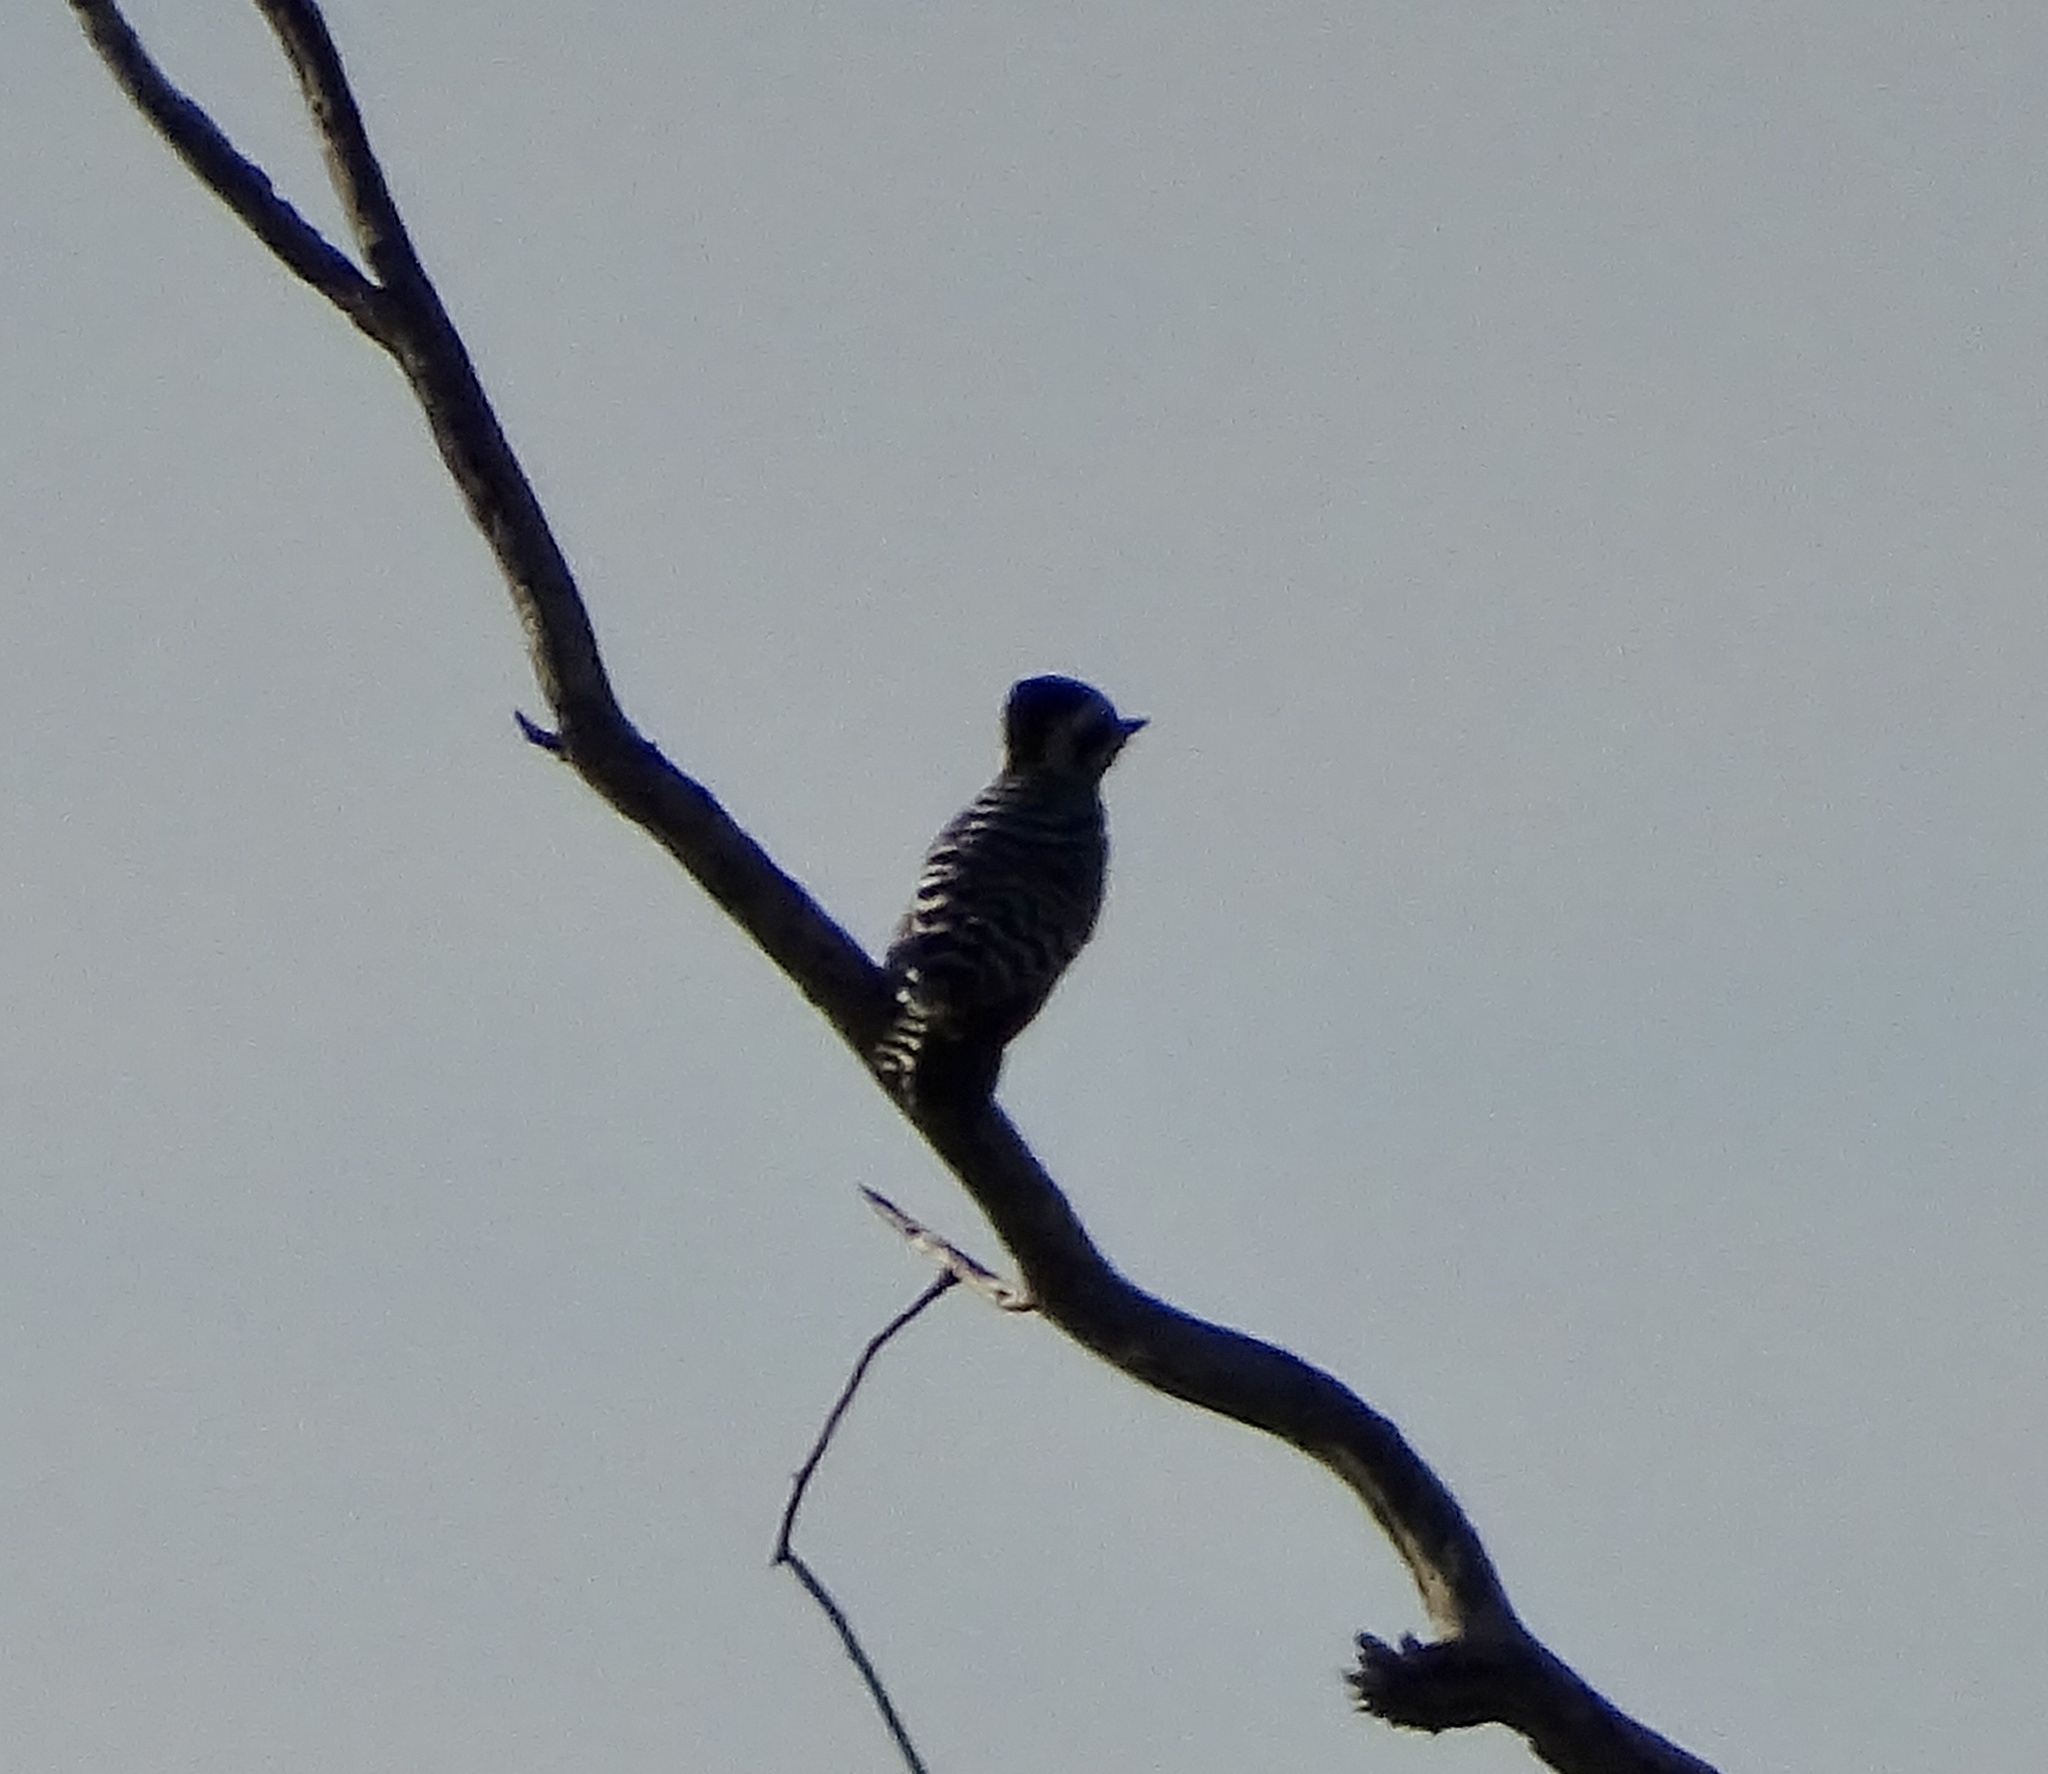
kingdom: Animalia
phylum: Chordata
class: Aves
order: Piciformes
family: Picidae
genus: Dryobates
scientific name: Dryobates scalaris
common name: Ladder-backed woodpecker
